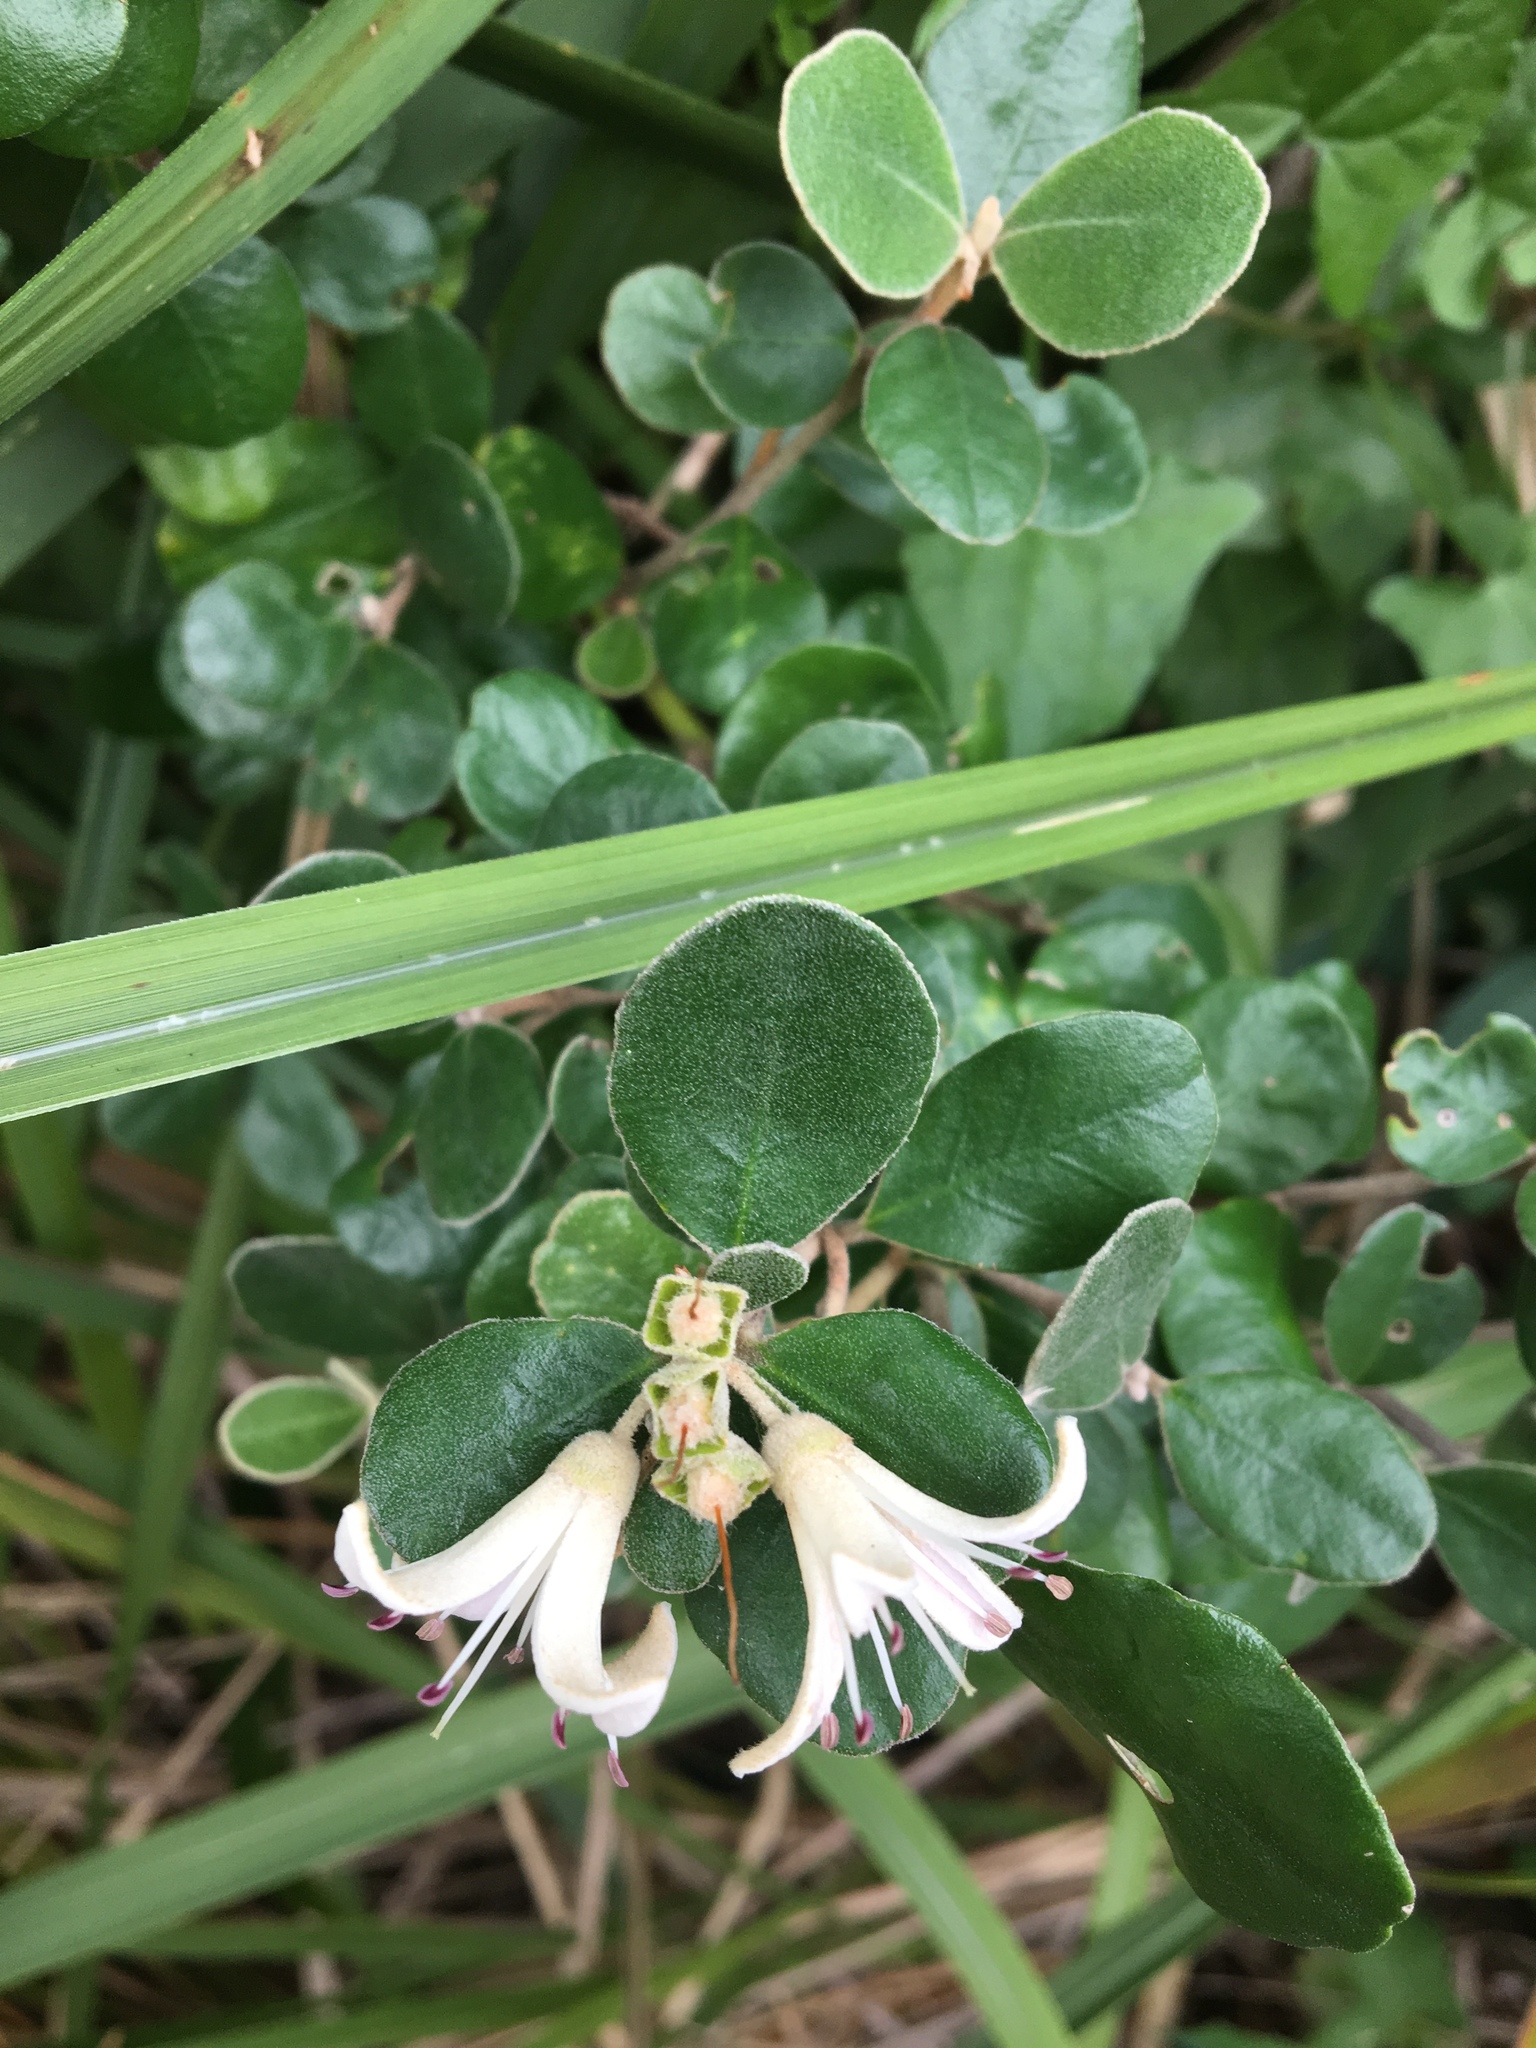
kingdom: Plantae
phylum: Tracheophyta
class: Magnoliopsida
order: Sapindales
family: Rutaceae
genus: Correa
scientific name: Correa alba
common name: White correa
